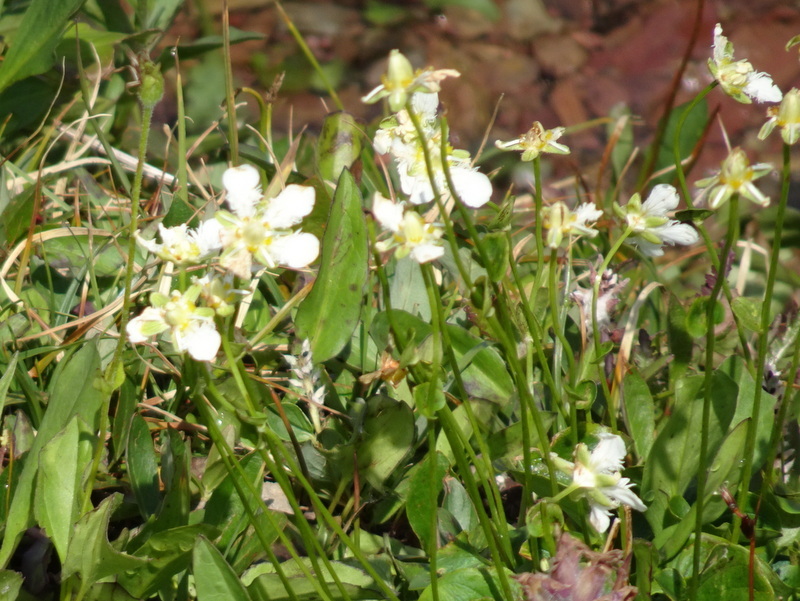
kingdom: Plantae
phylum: Tracheophyta
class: Magnoliopsida
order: Celastrales
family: Parnassiaceae
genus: Parnassia
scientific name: Parnassia fimbriata
